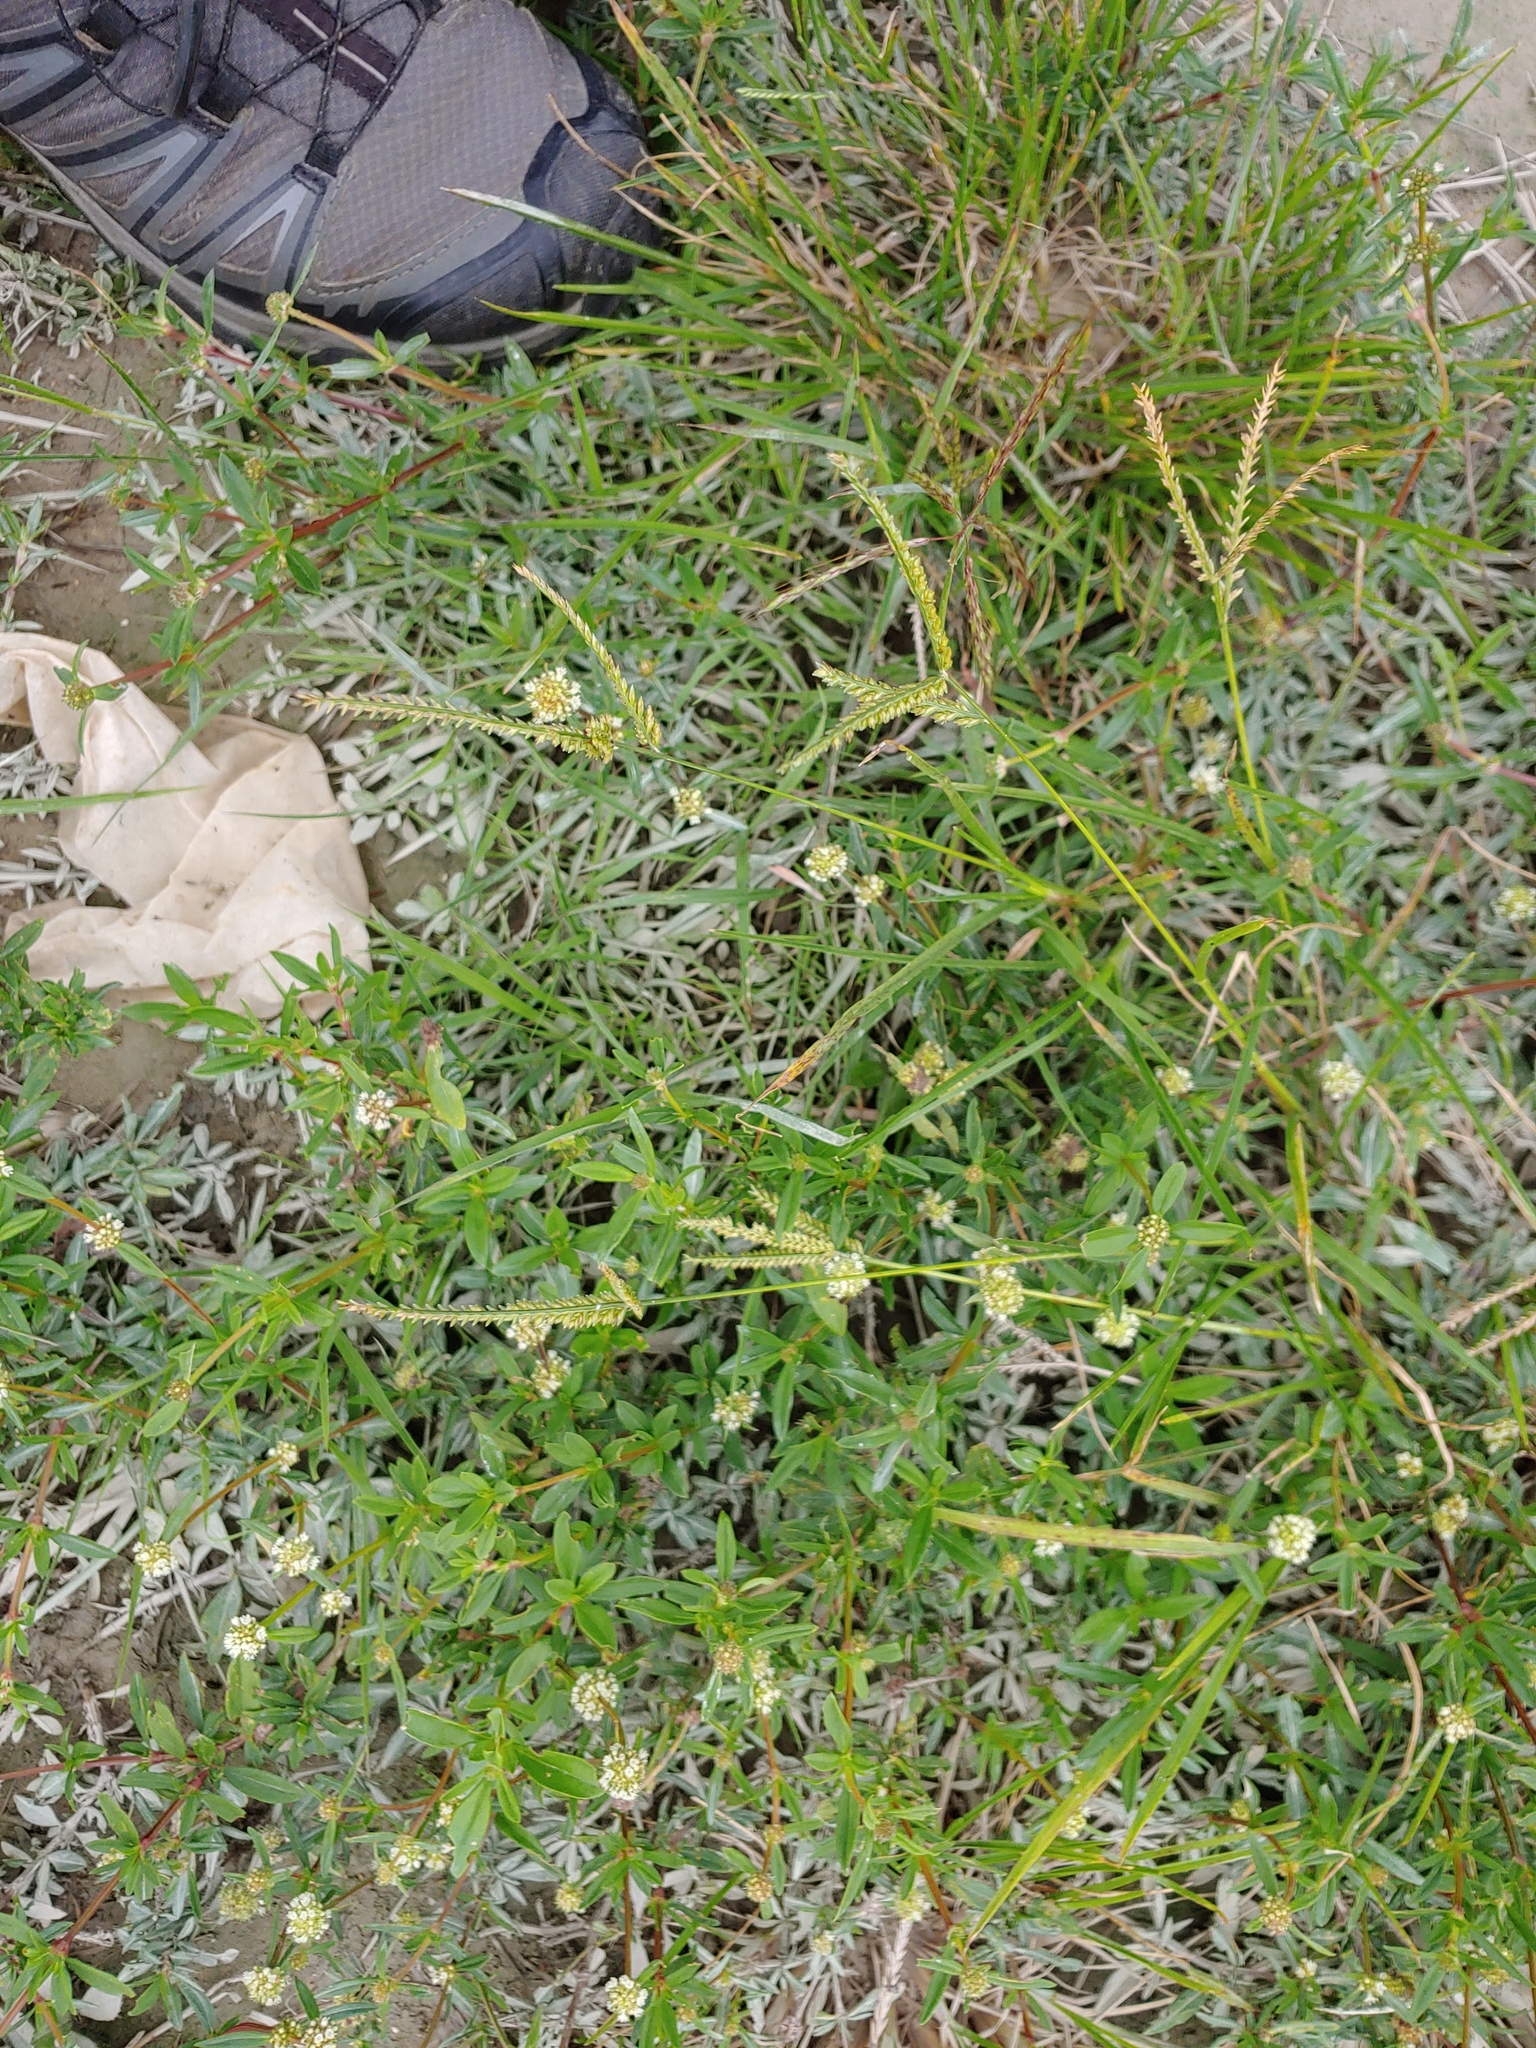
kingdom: Plantae
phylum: Tracheophyta
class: Magnoliopsida
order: Gentianales
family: Rubiaceae
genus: Spermacoce
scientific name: Spermacoce verticillata
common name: Shrubby false buttonweed
